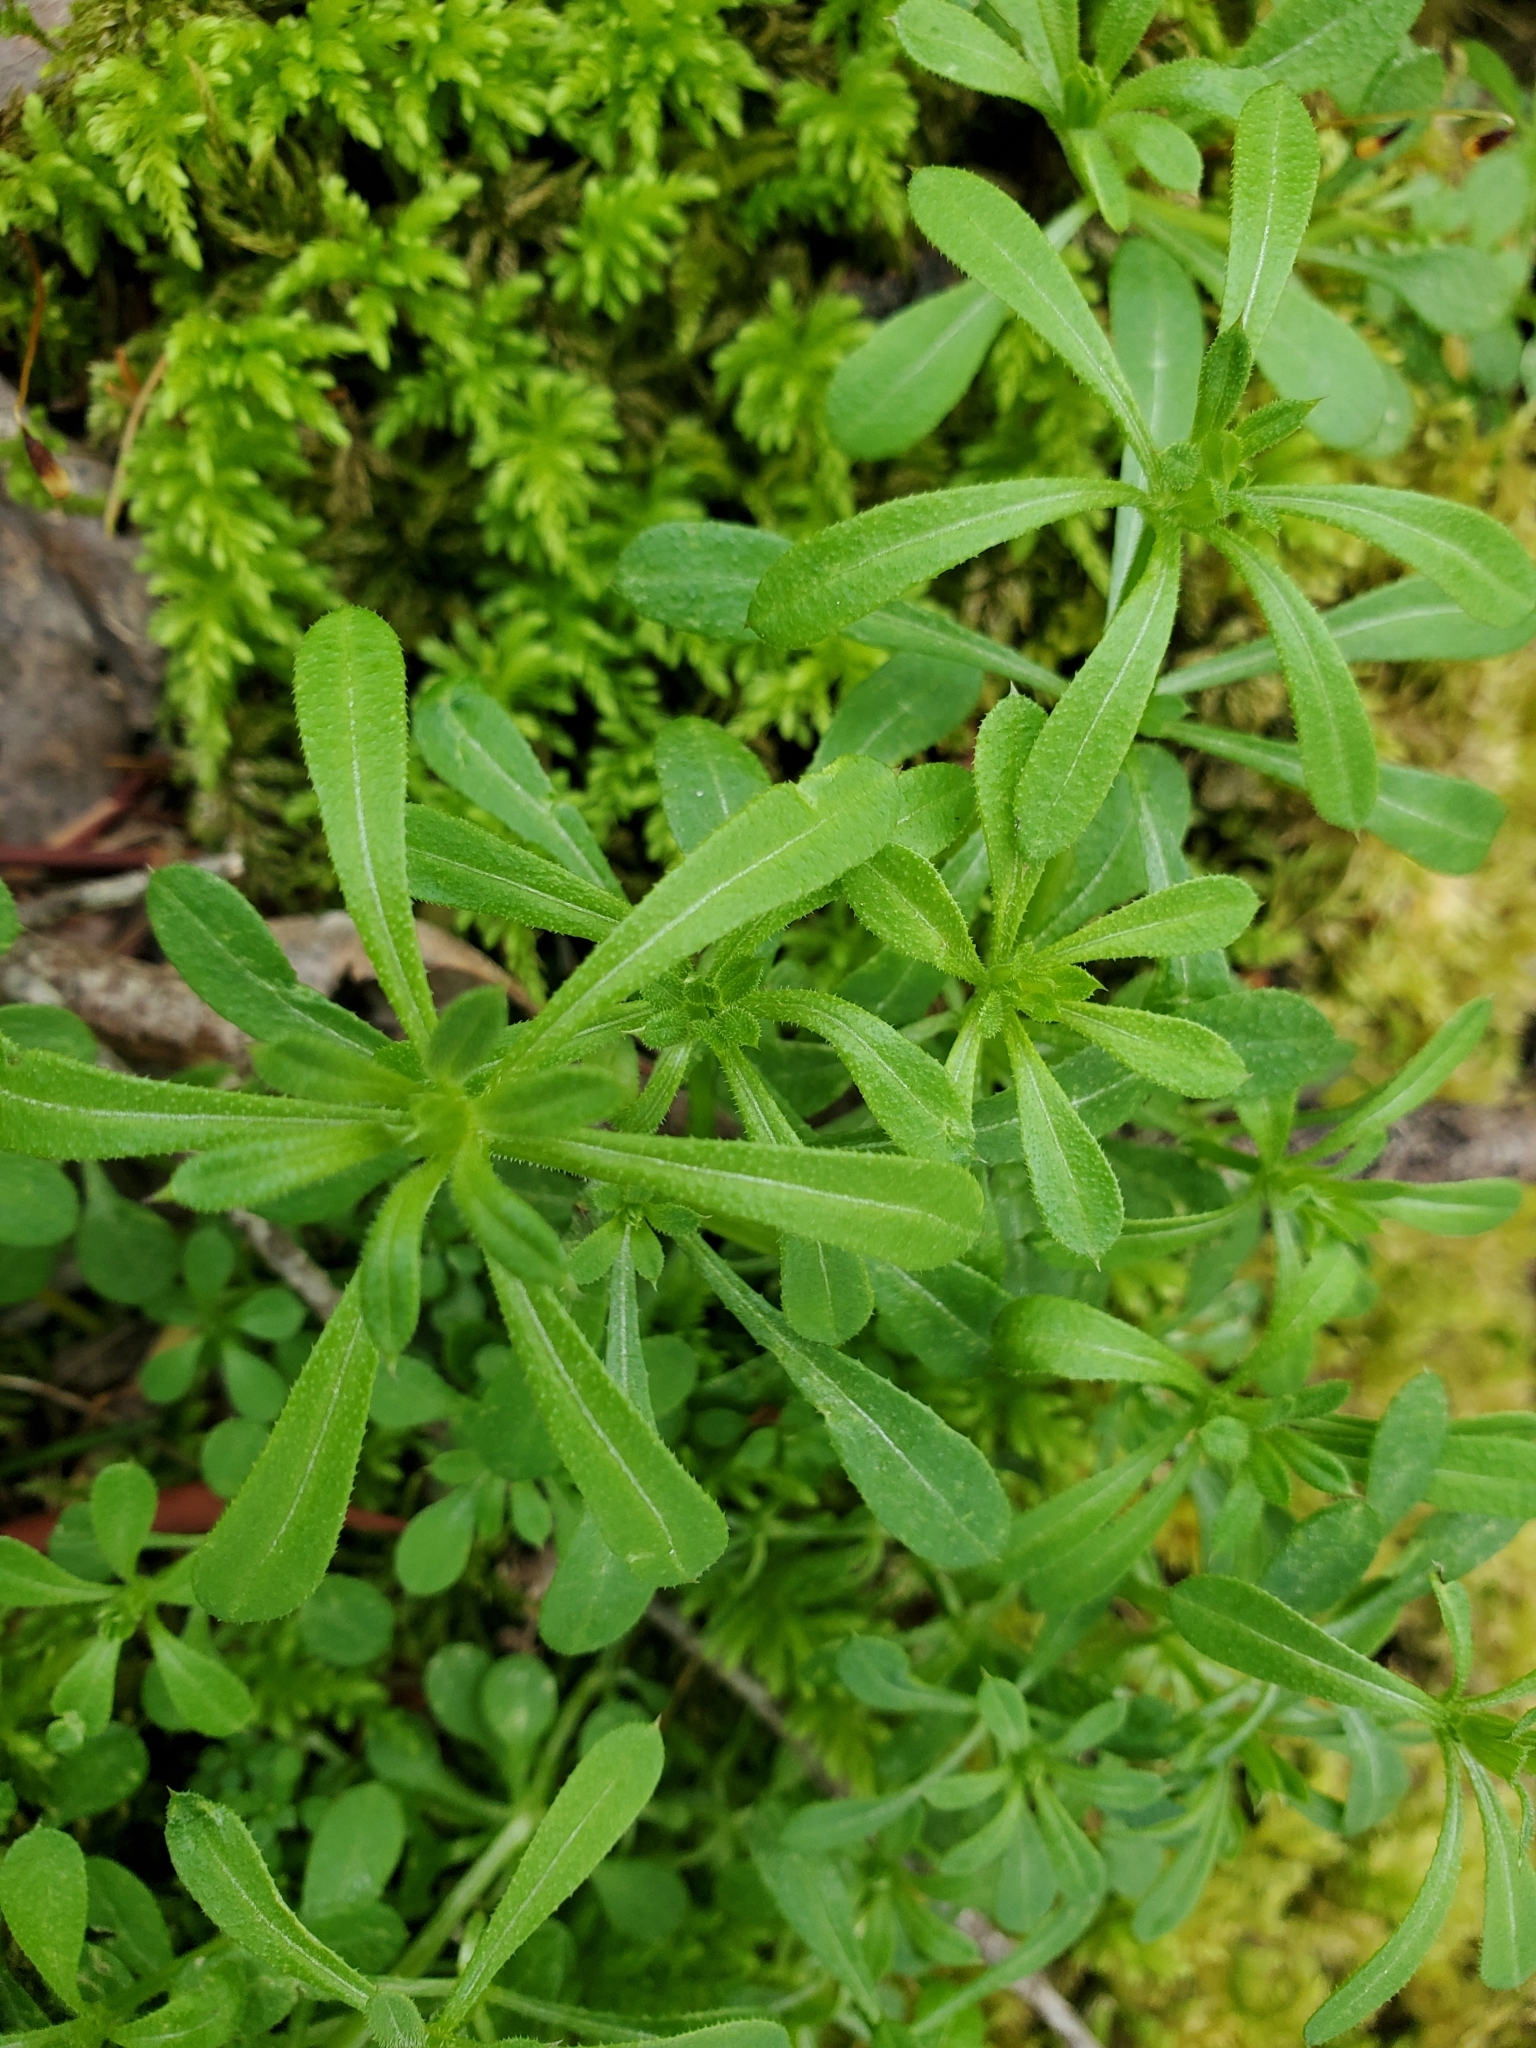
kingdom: Plantae
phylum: Tracheophyta
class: Magnoliopsida
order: Gentianales
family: Rubiaceae
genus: Galium
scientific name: Galium aparine
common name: Cleavers
